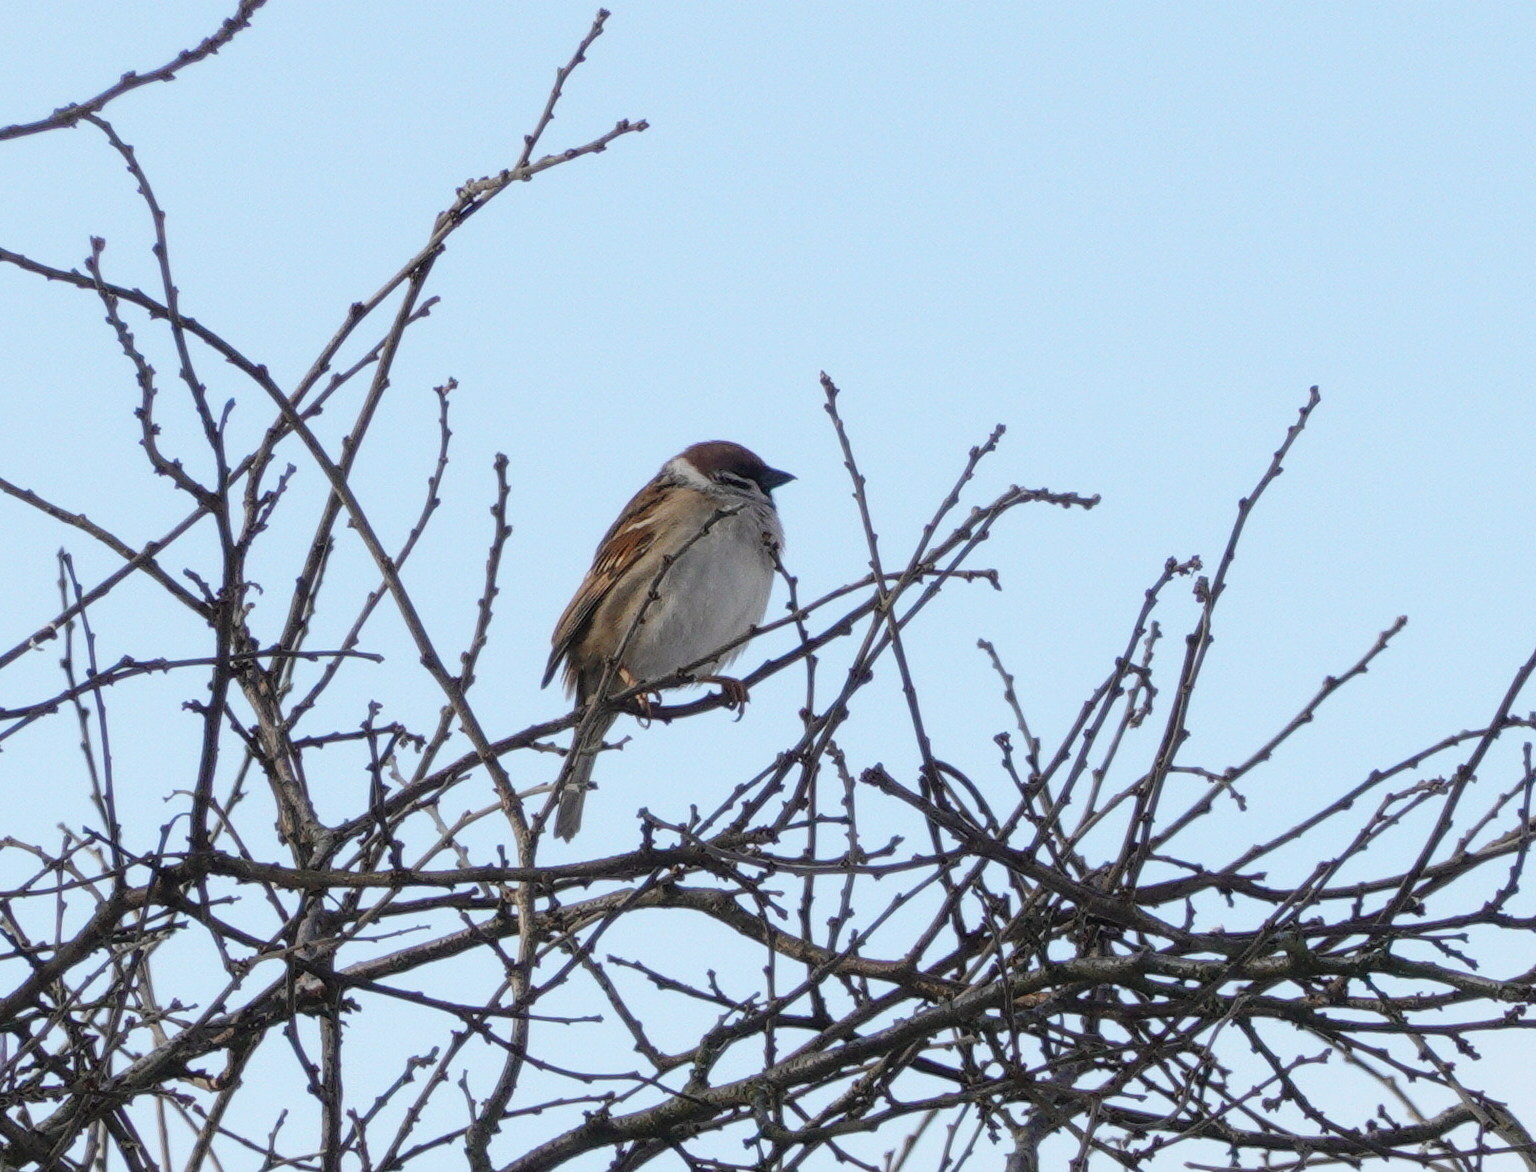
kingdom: Animalia
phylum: Chordata
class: Aves
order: Passeriformes
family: Passeridae
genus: Passer
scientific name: Passer montanus
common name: Eurasian tree sparrow
